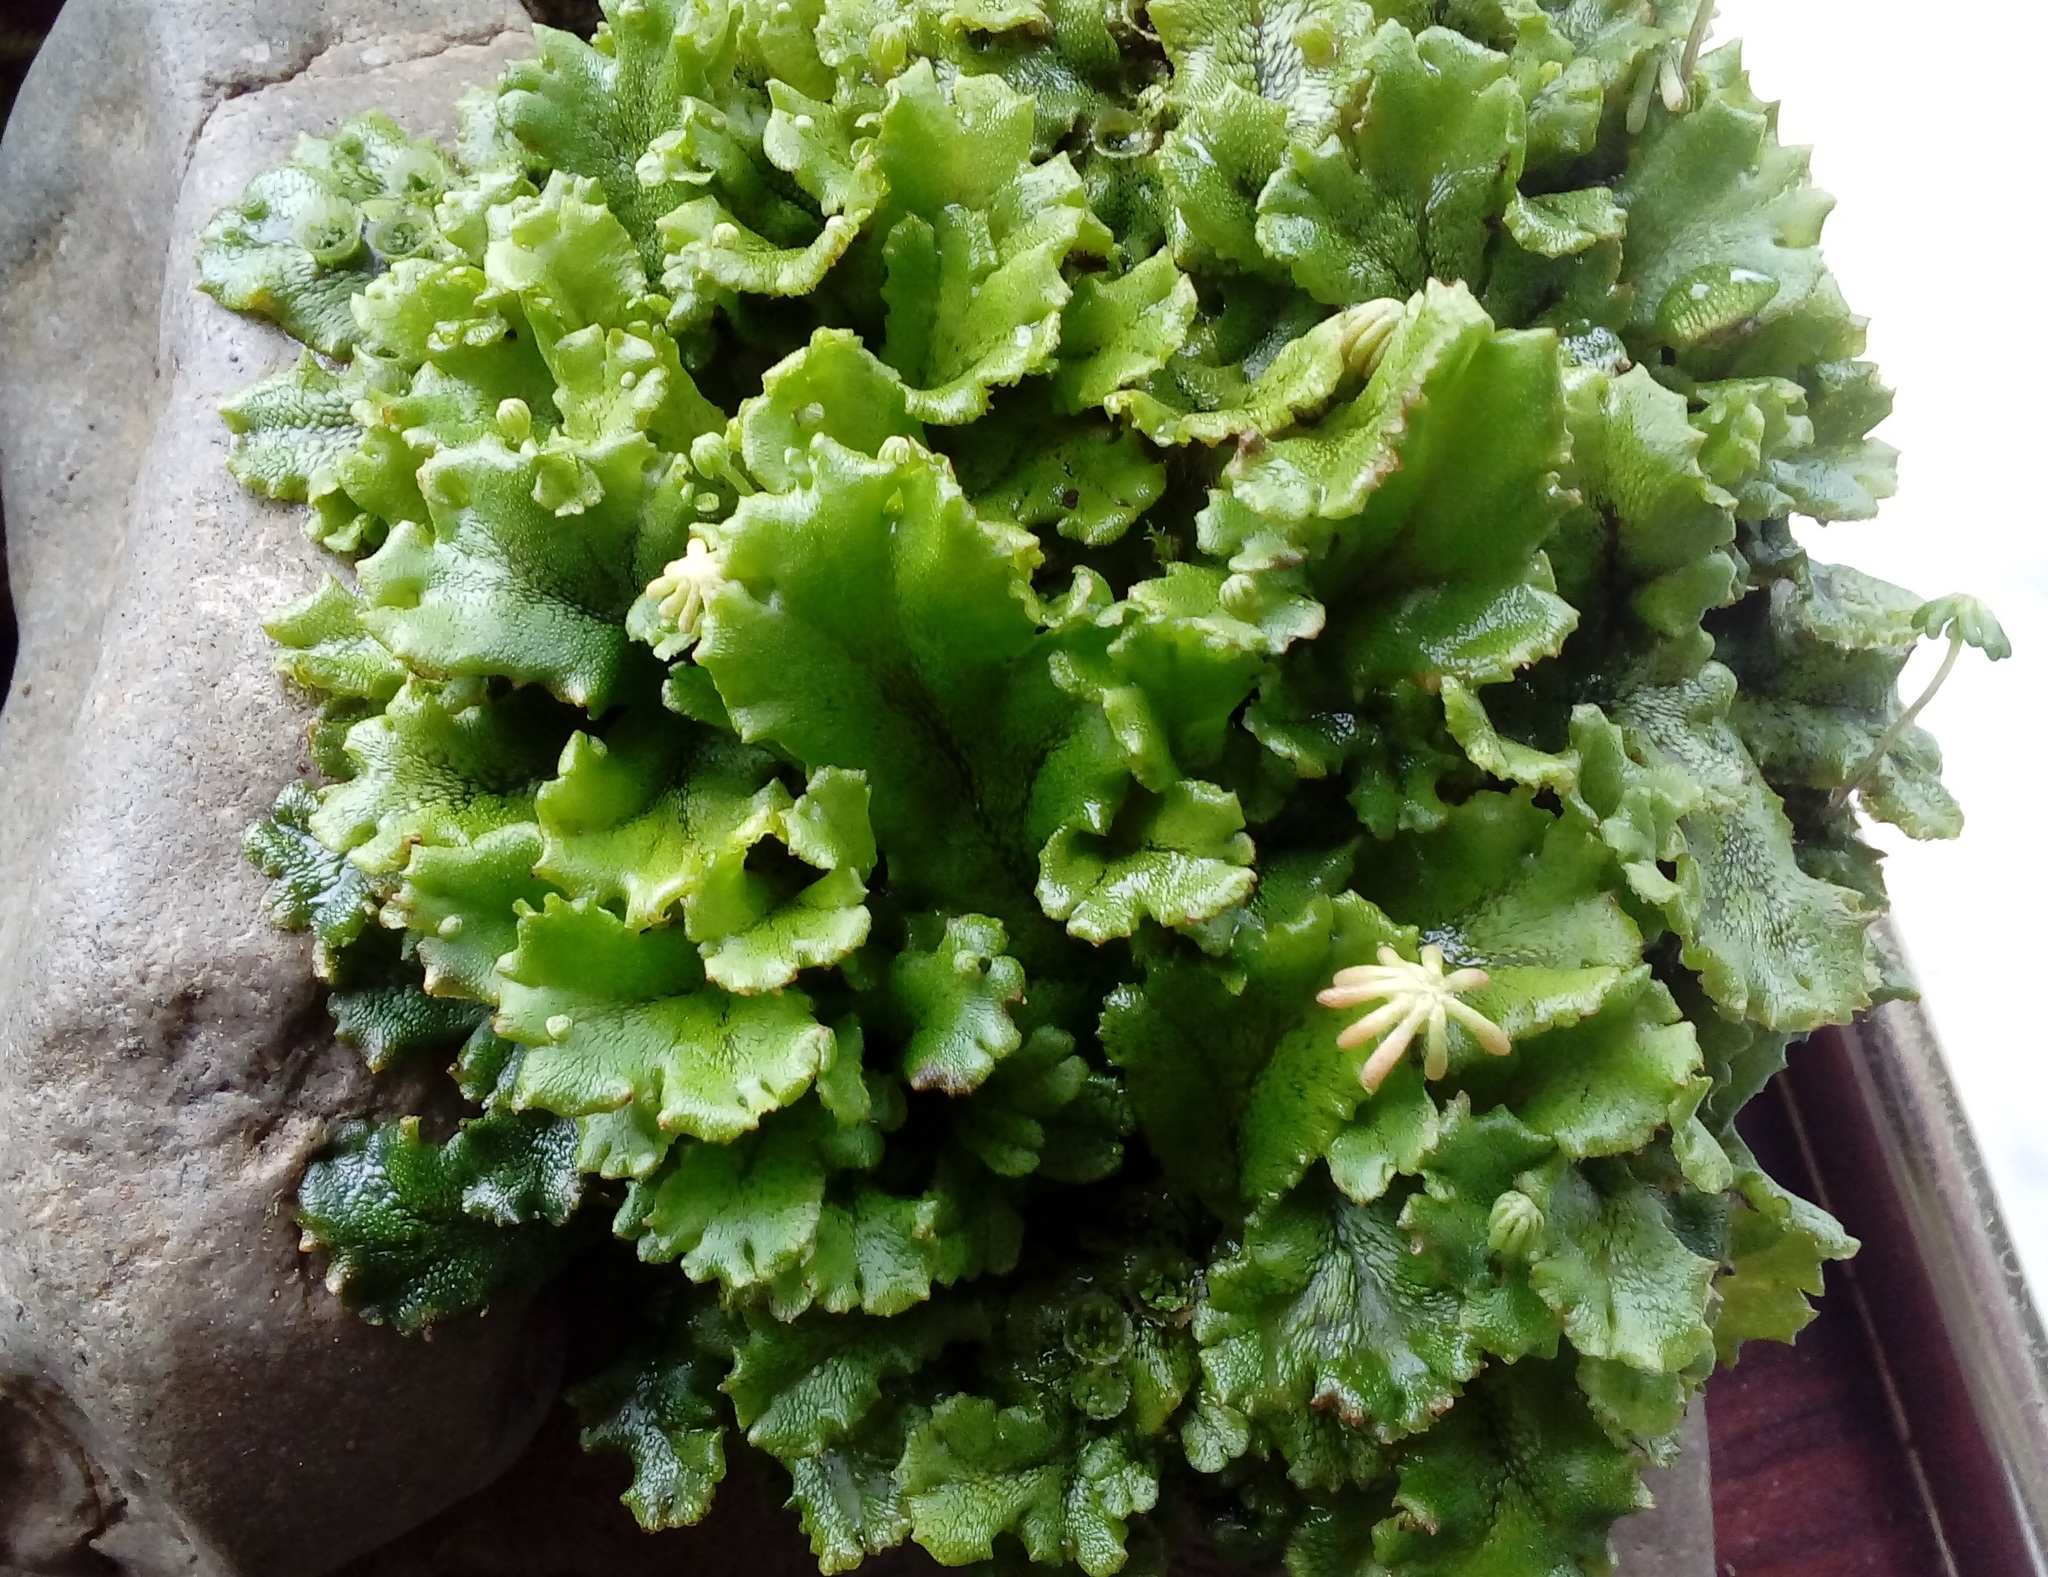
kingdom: Plantae
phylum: Marchantiophyta
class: Marchantiopsida
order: Marchantiales
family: Marchantiaceae
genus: Marchantia
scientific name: Marchantia polymorpha
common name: Common liverwort
